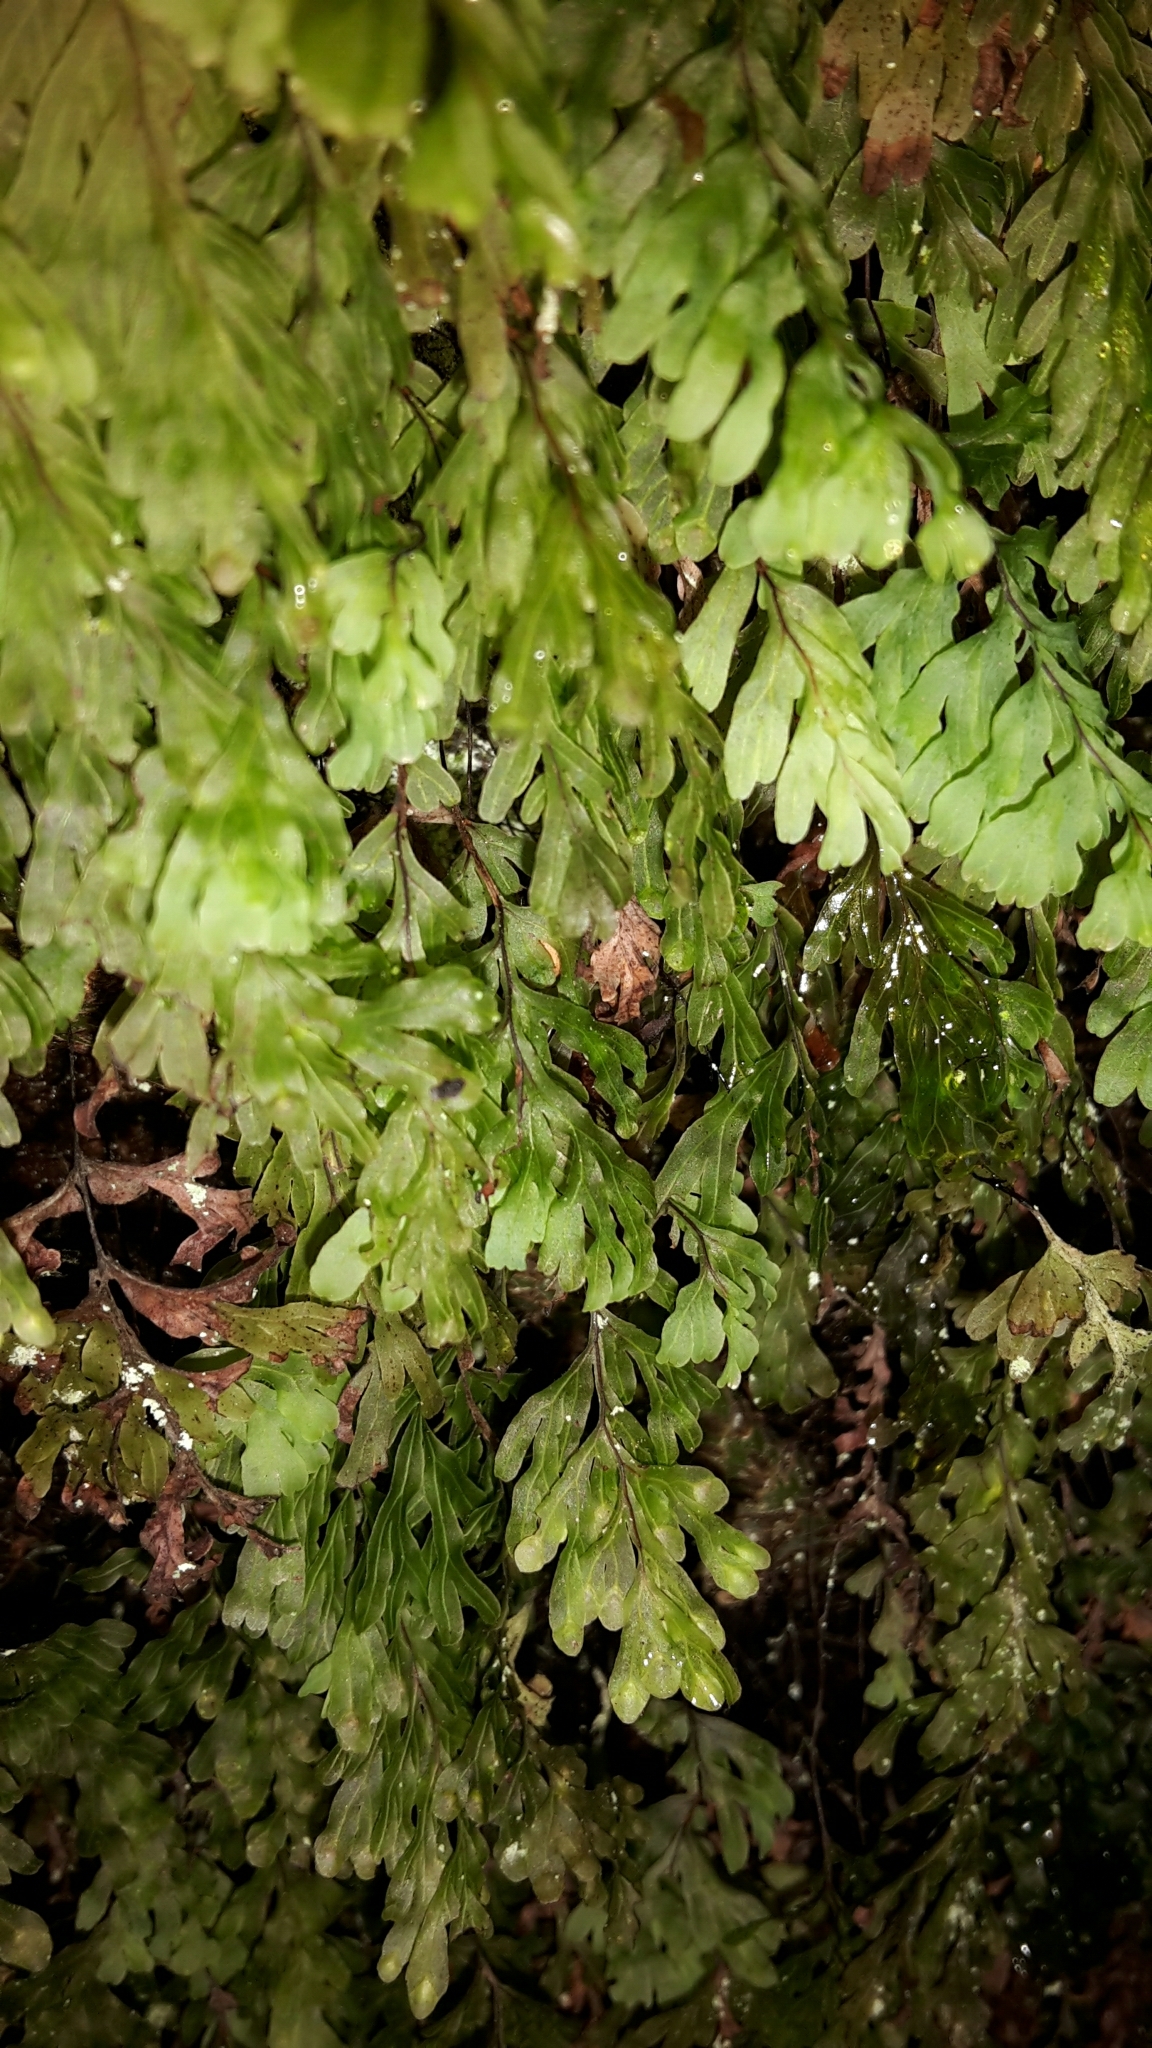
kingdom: Plantae
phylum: Tracheophyta
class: Polypodiopsida
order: Hymenophyllales
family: Hymenophyllaceae
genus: Hymenophyllum
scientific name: Hymenophyllum rarum
